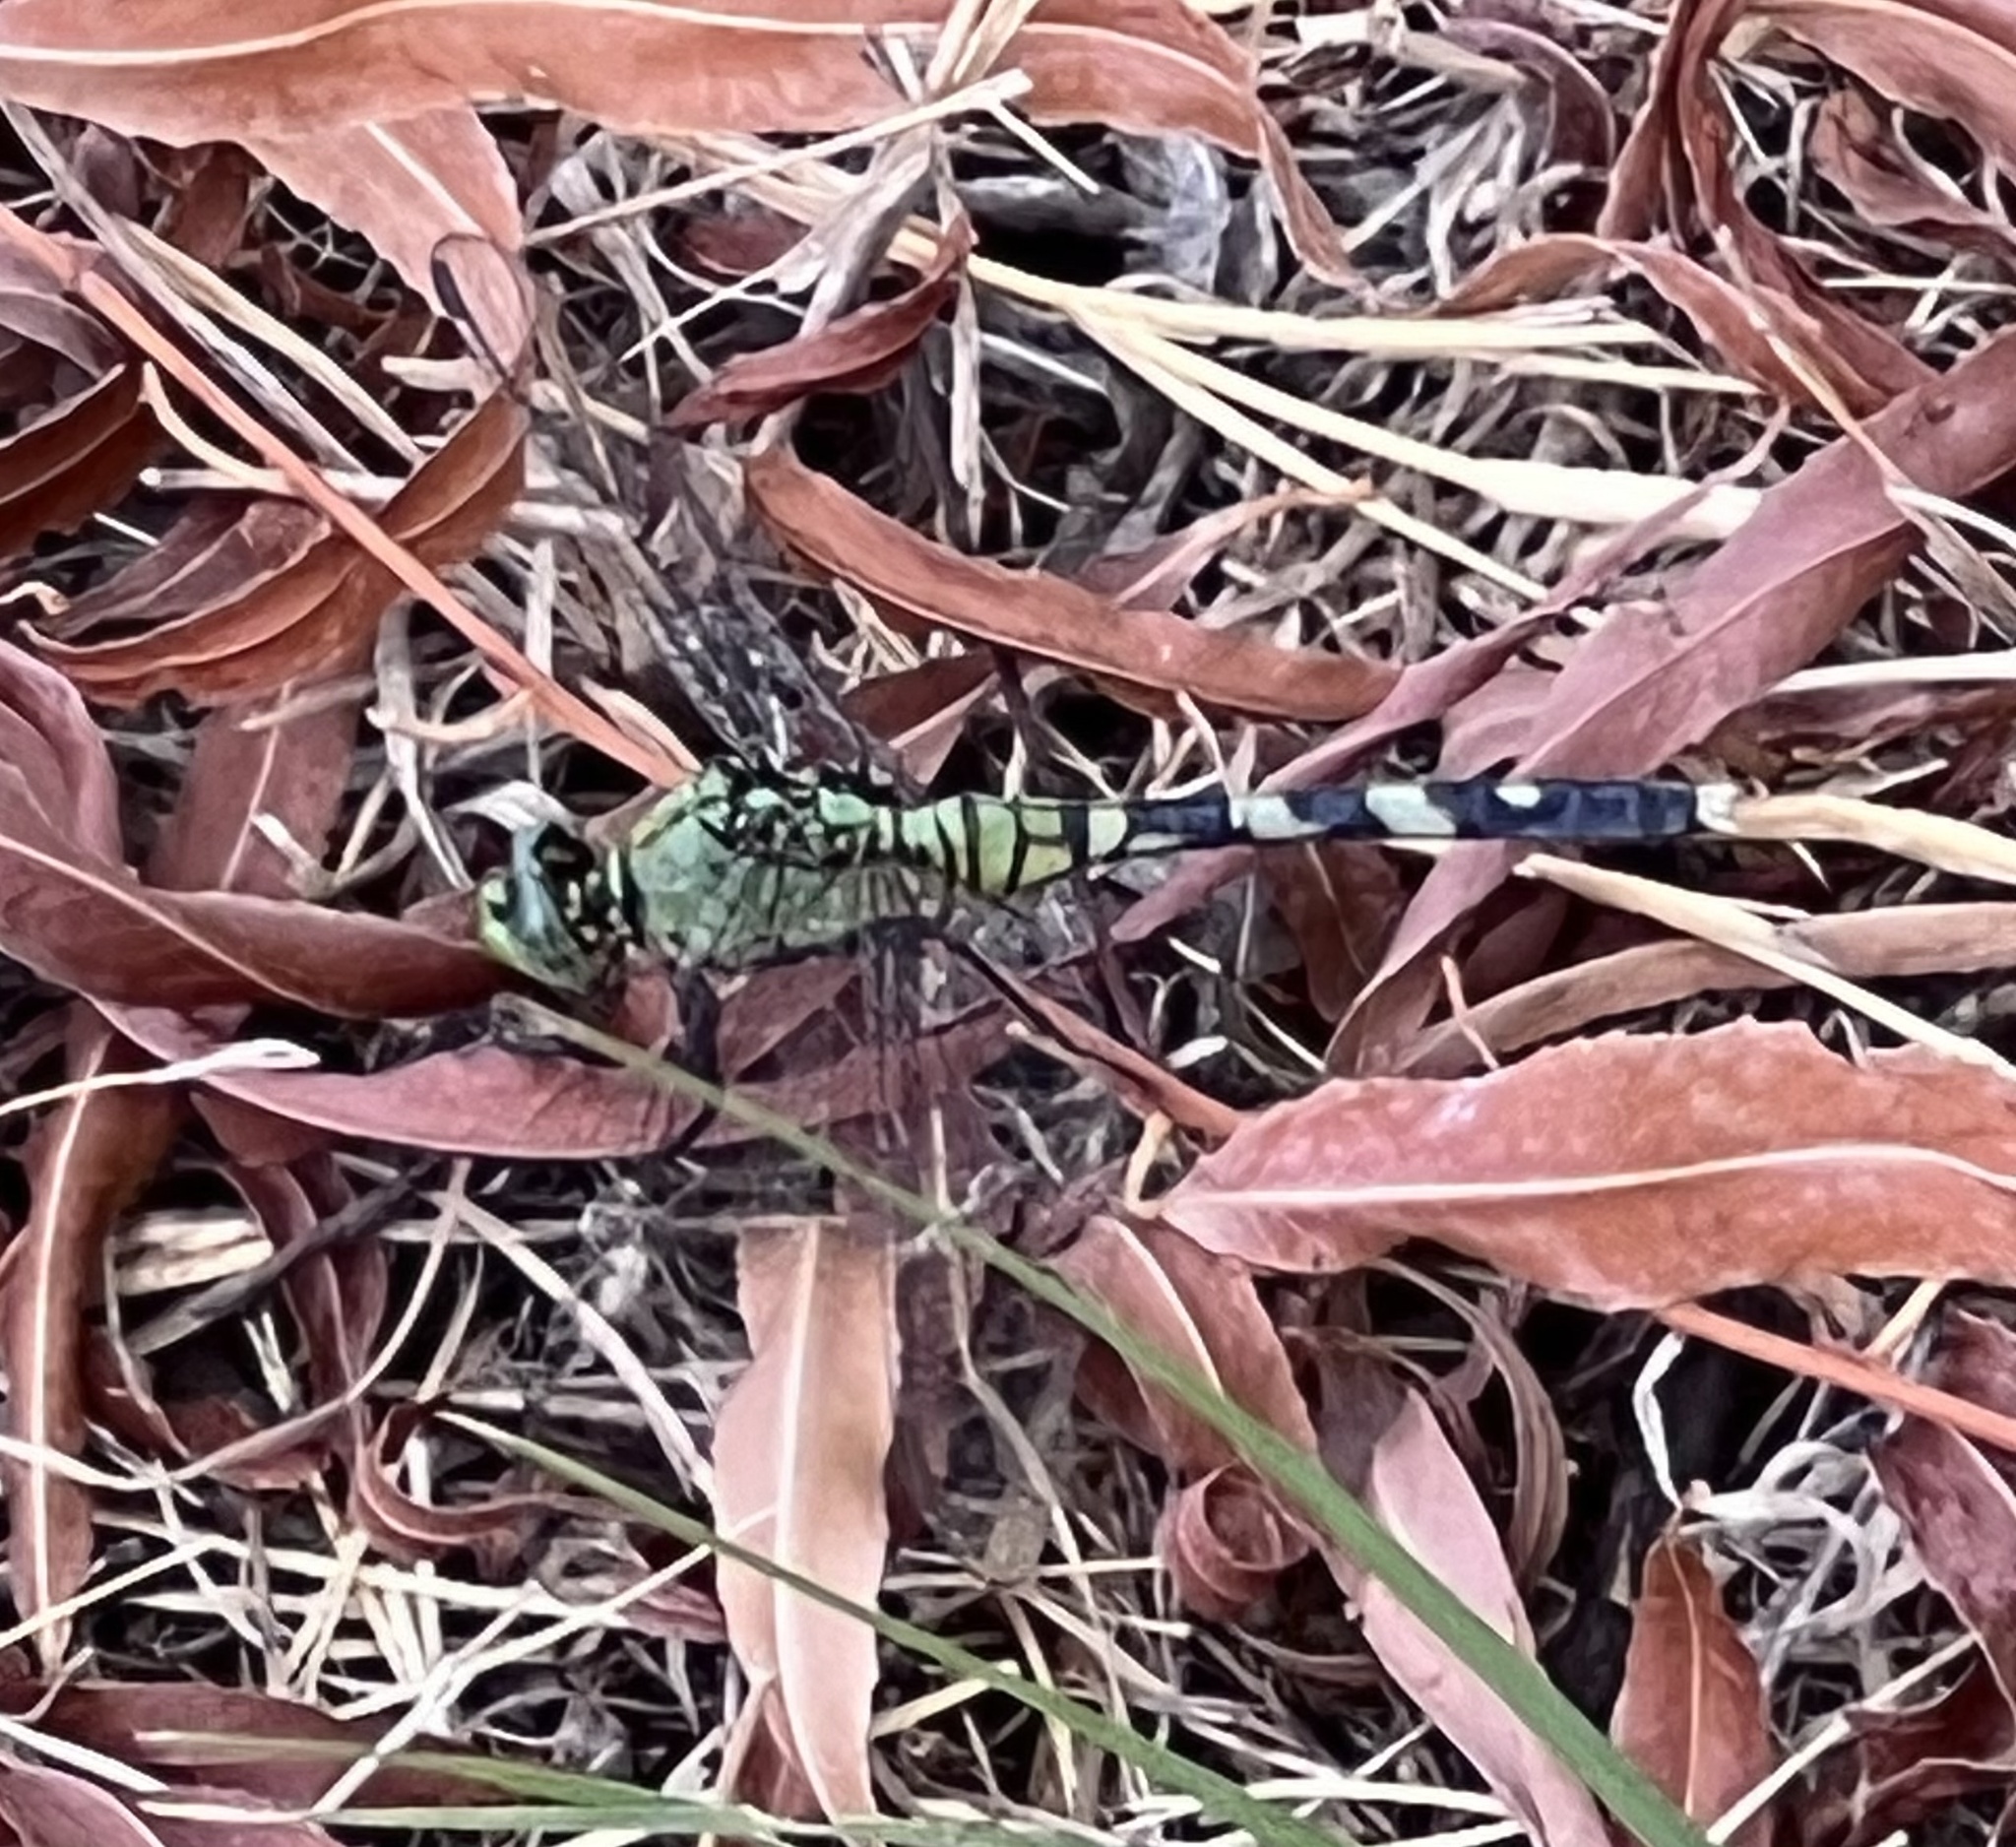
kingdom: Animalia
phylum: Arthropoda
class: Insecta
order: Odonata
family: Libellulidae
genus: Erythemis
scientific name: Erythemis simplicicollis
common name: Eastern pondhawk
